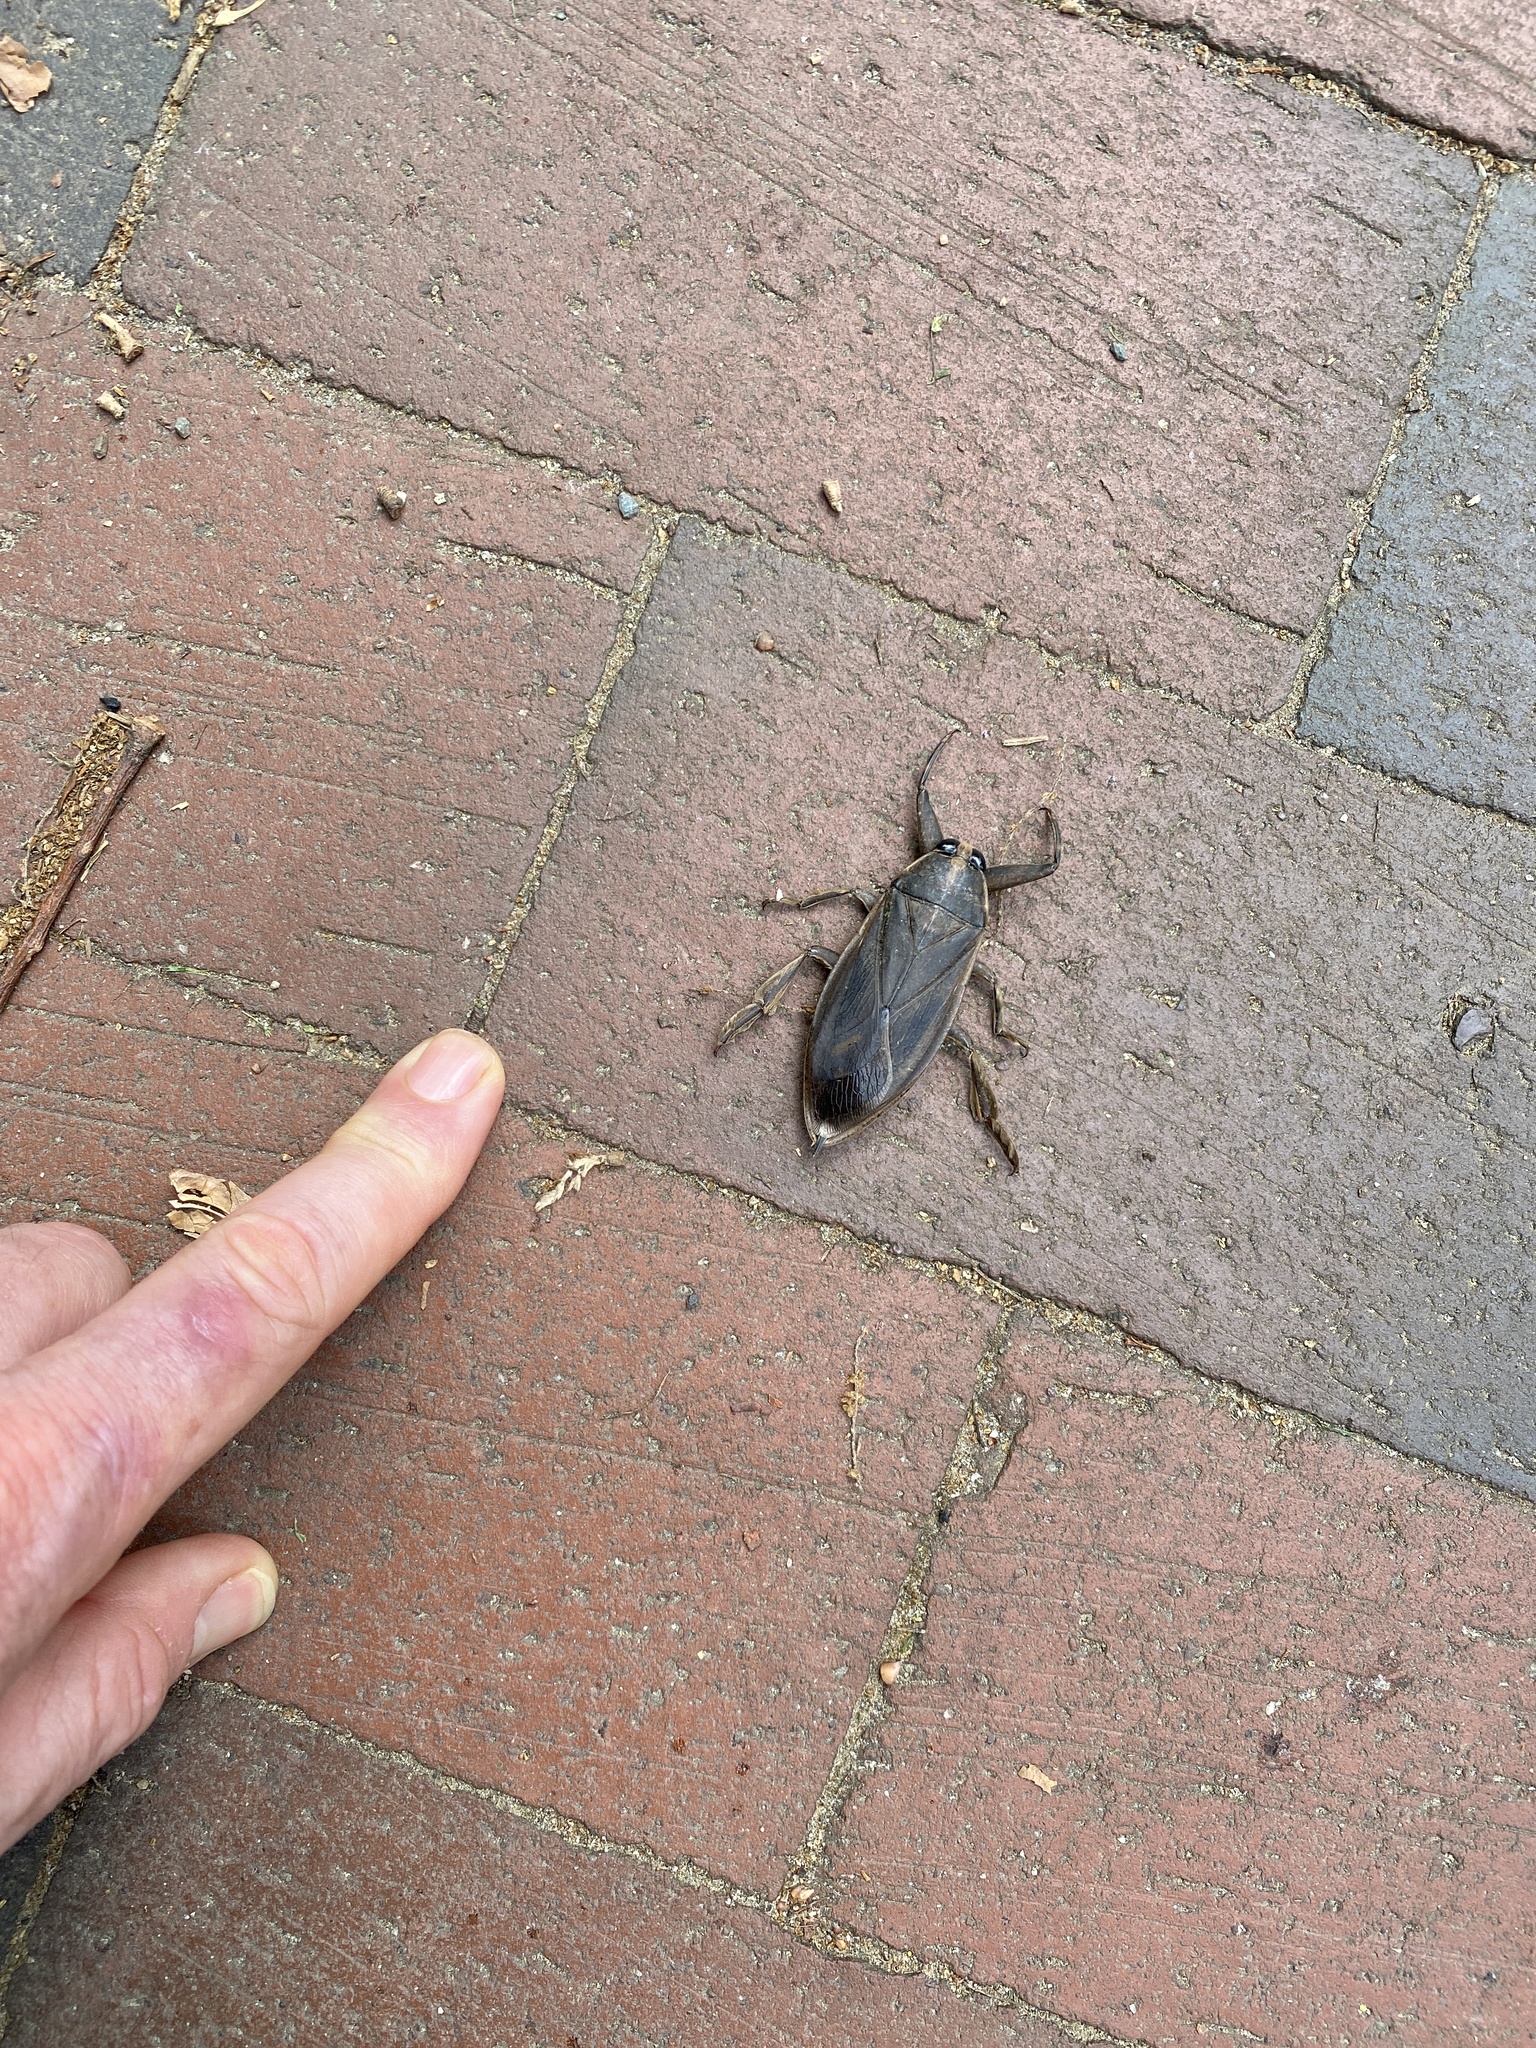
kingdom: Animalia
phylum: Arthropoda
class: Insecta
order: Hemiptera
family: Belostomatidae
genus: Benacus
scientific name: Benacus griseus
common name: Eastern toe-biter
